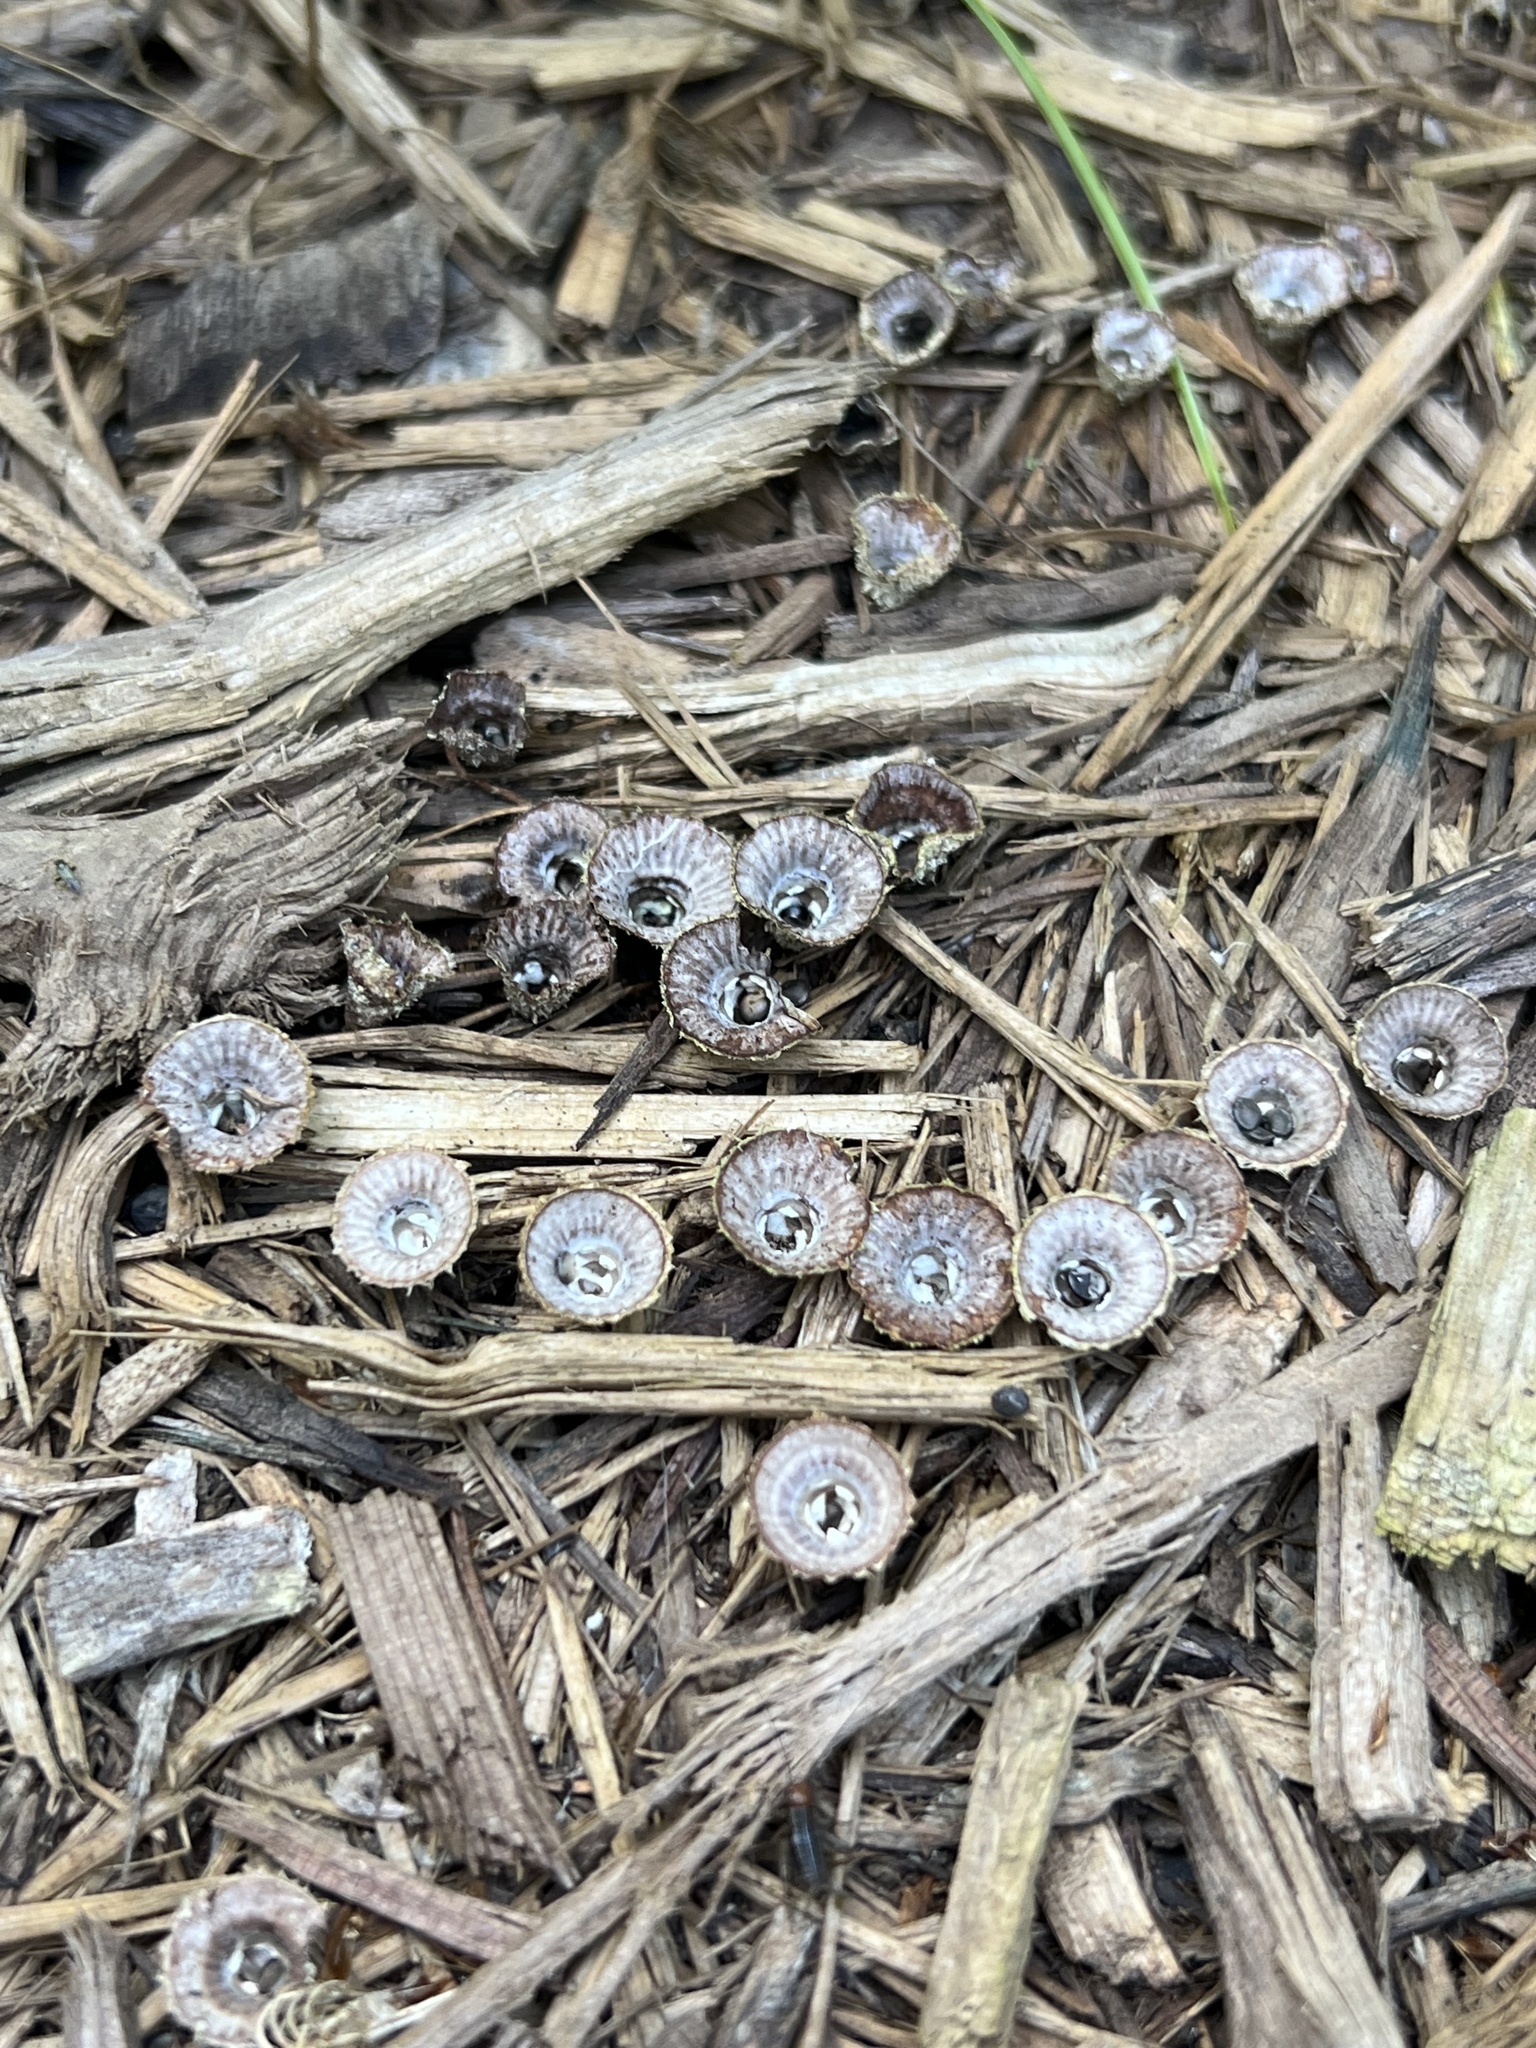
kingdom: Fungi
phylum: Basidiomycota
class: Agaricomycetes
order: Agaricales
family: Agaricaceae
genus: Cyathus
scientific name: Cyathus striatus
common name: Fluted bird's nest
